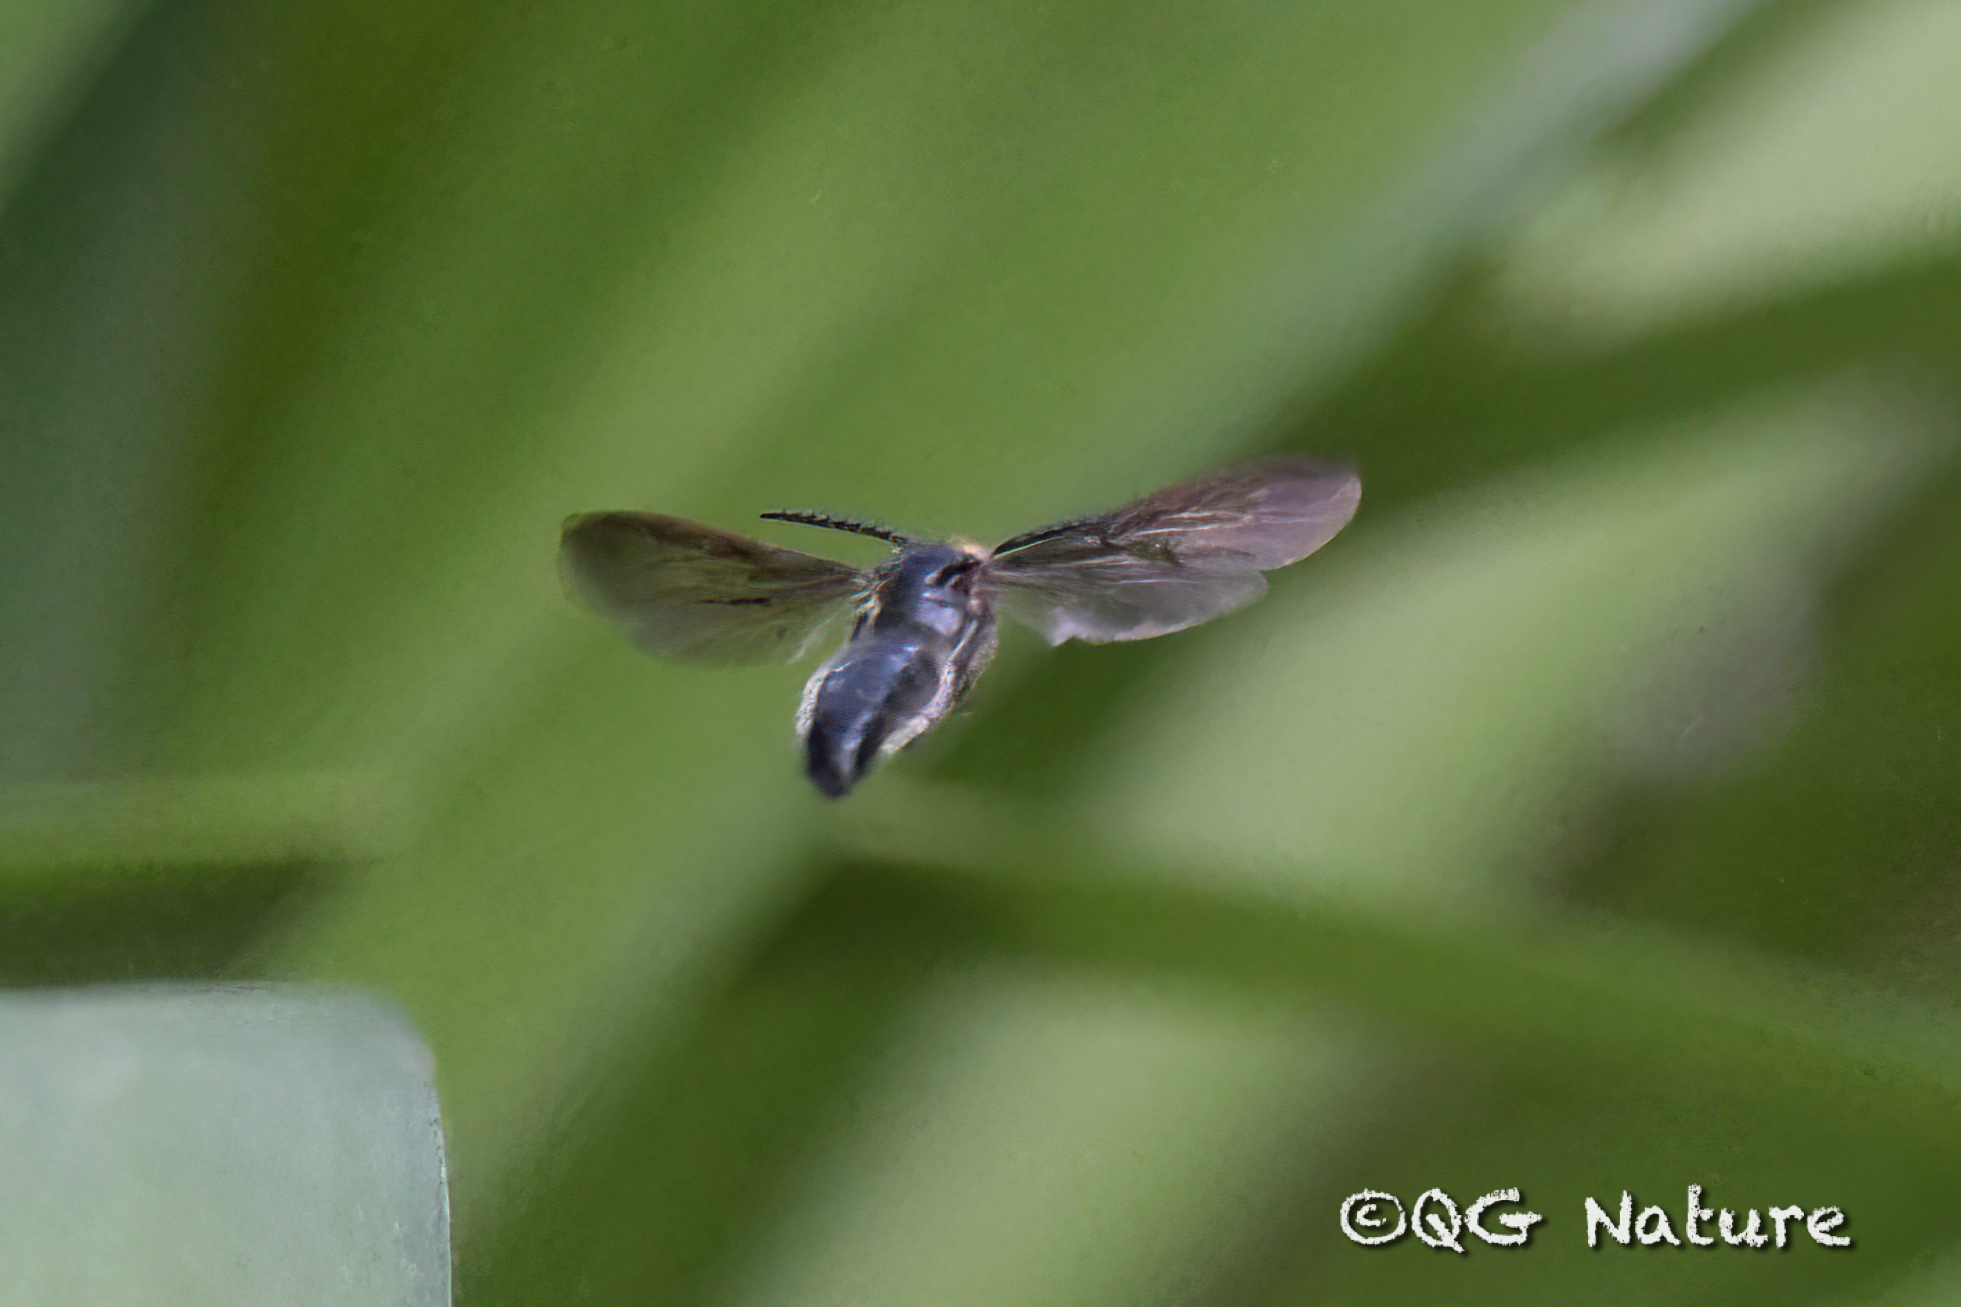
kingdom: Animalia
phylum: Arthropoda
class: Insecta
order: Hymenoptera
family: Scoliidae
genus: Scolia
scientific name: Scolia superciliaris
